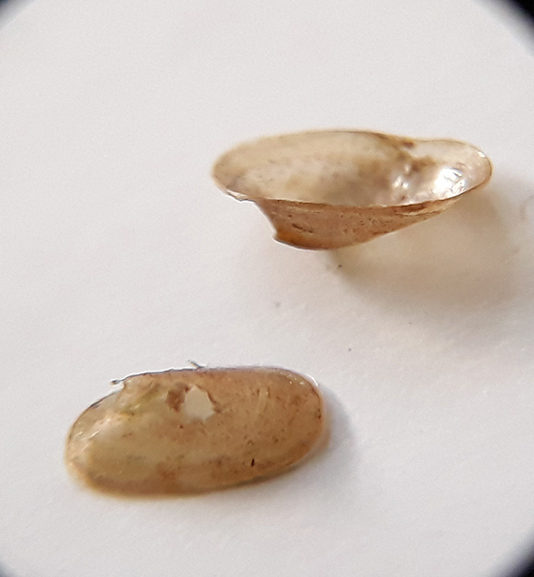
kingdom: Animalia
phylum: Mollusca
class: Gastropoda
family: Acroloxidae
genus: Acroloxus
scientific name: Acroloxus lacustris
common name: Lake limpet
